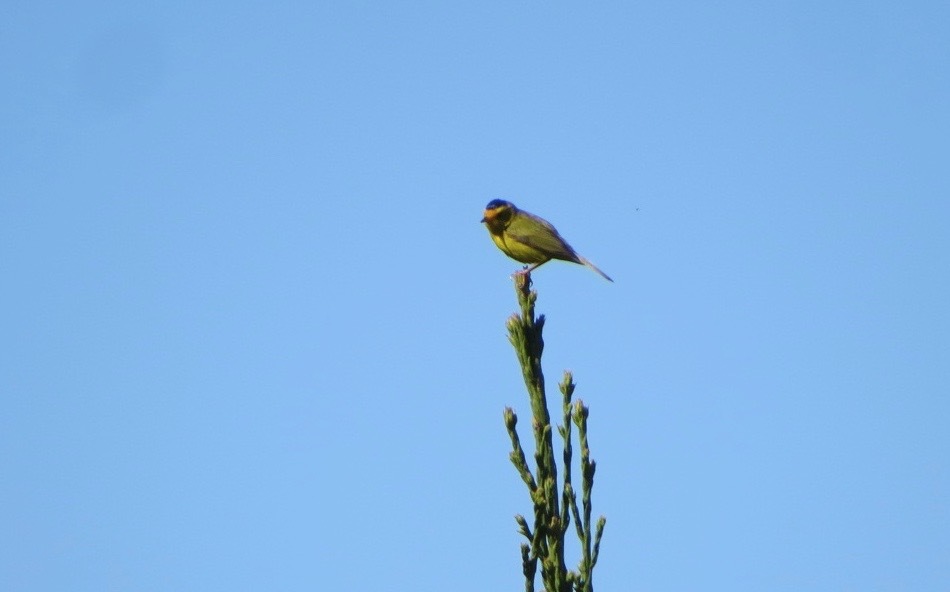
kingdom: Animalia
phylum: Chordata
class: Aves
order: Passeriformes
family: Parulidae
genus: Cardellina
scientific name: Cardellina pusilla
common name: Wilson's warbler
